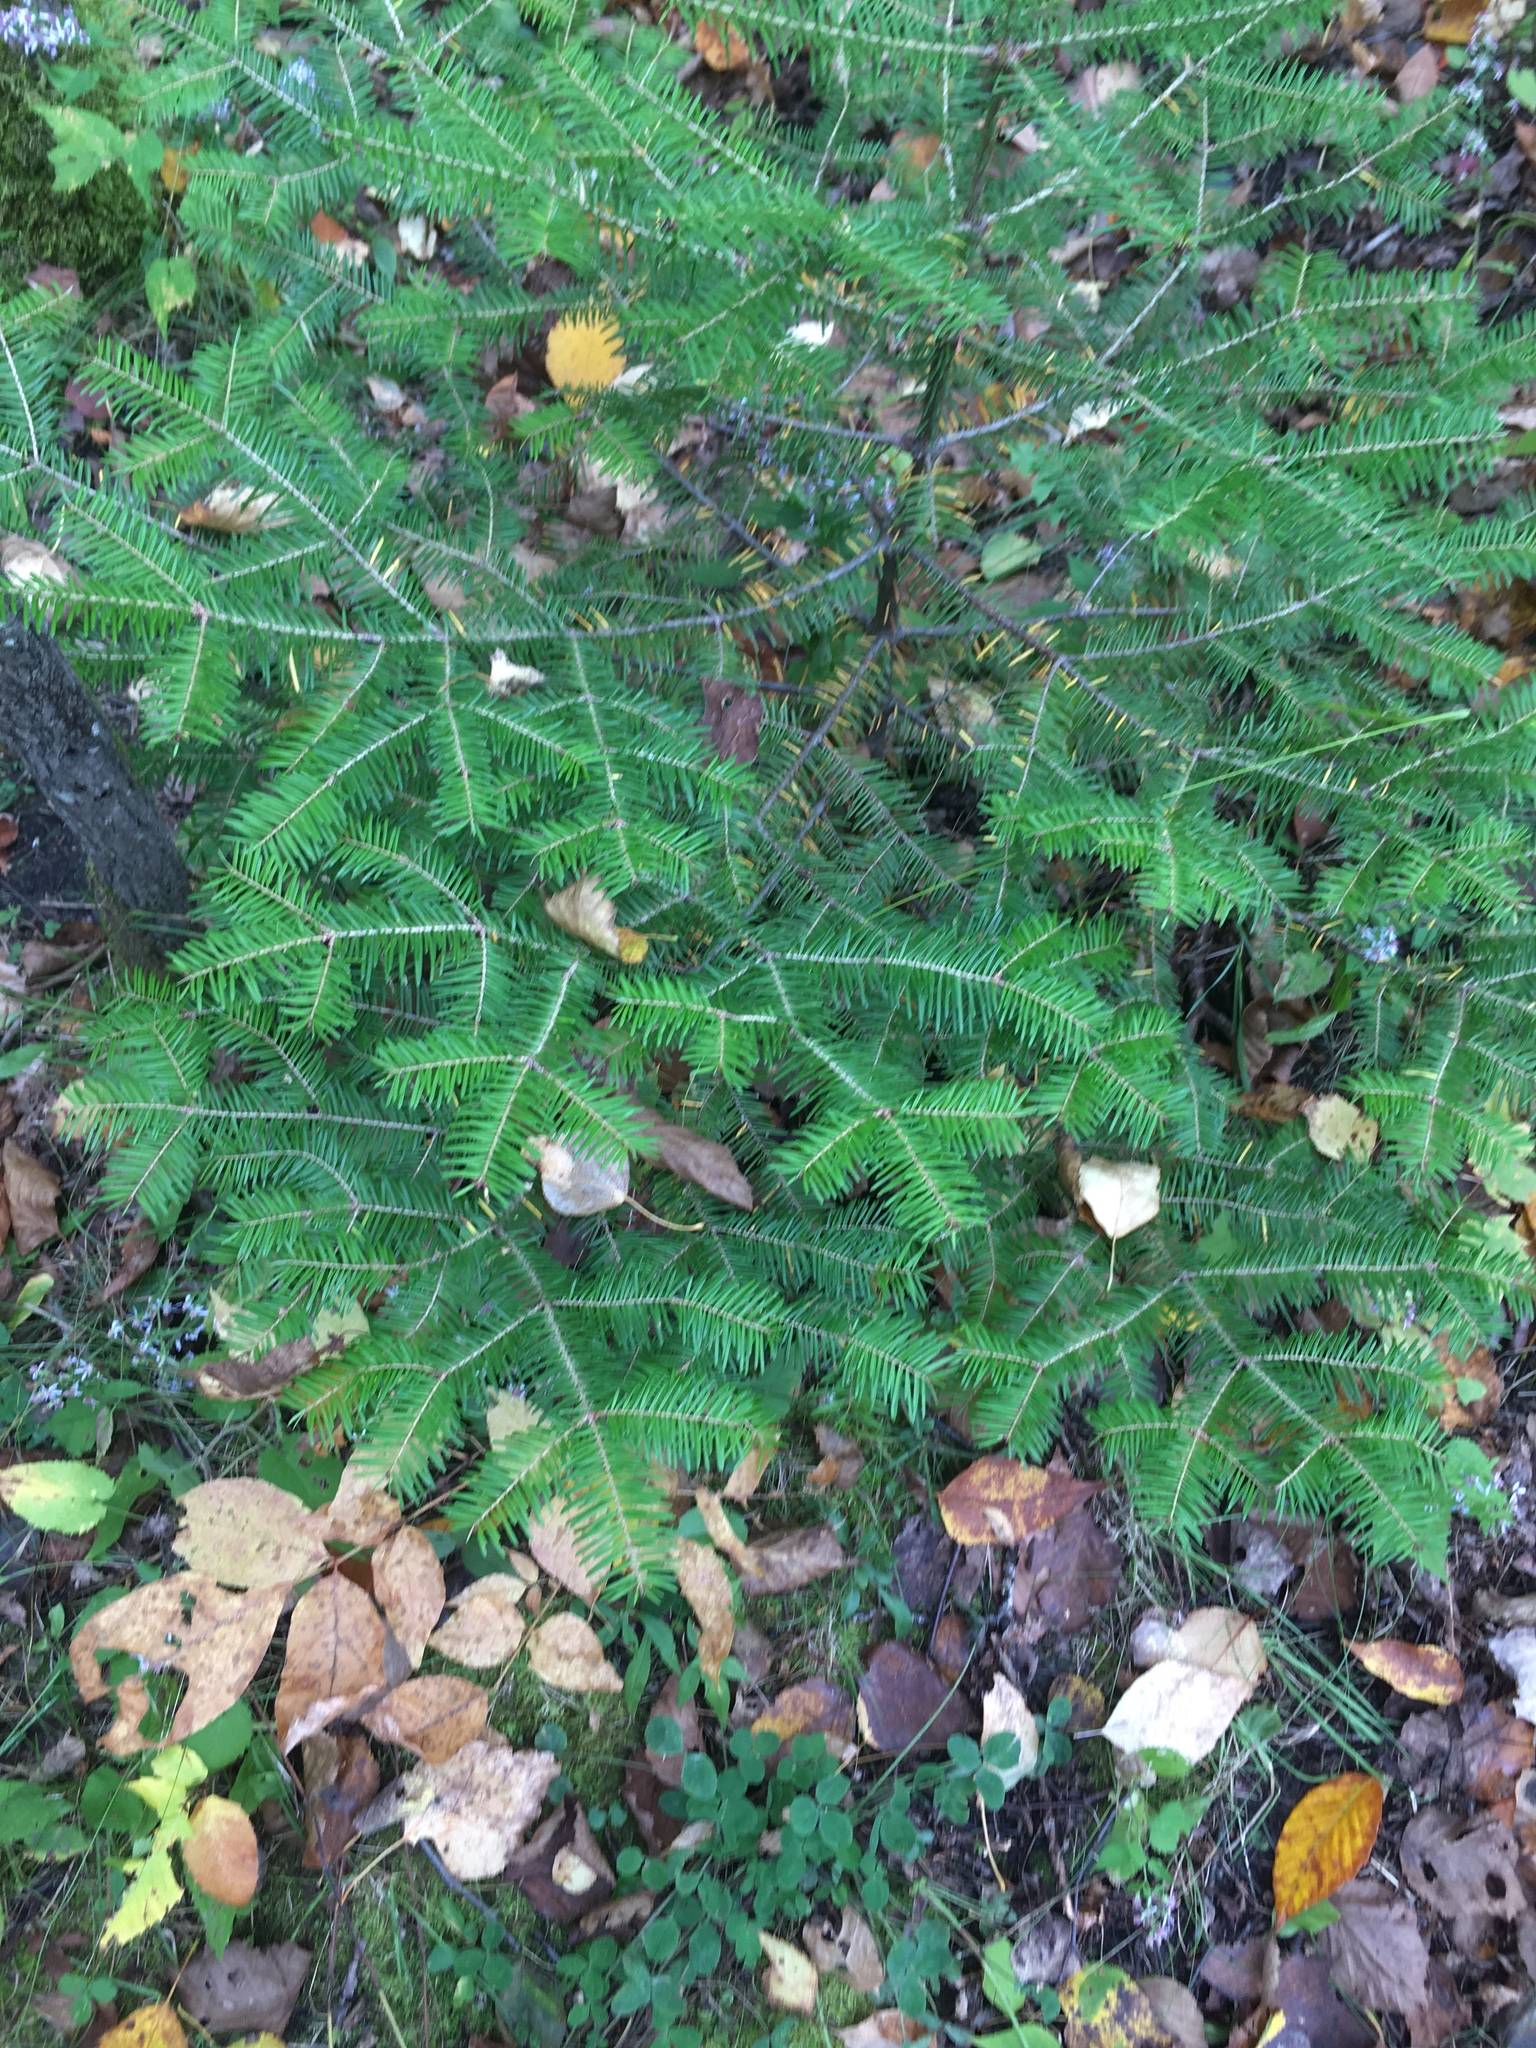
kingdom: Plantae
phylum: Tracheophyta
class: Pinopsida
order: Pinales
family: Pinaceae
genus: Abies
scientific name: Abies balsamea
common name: Balsam fir
